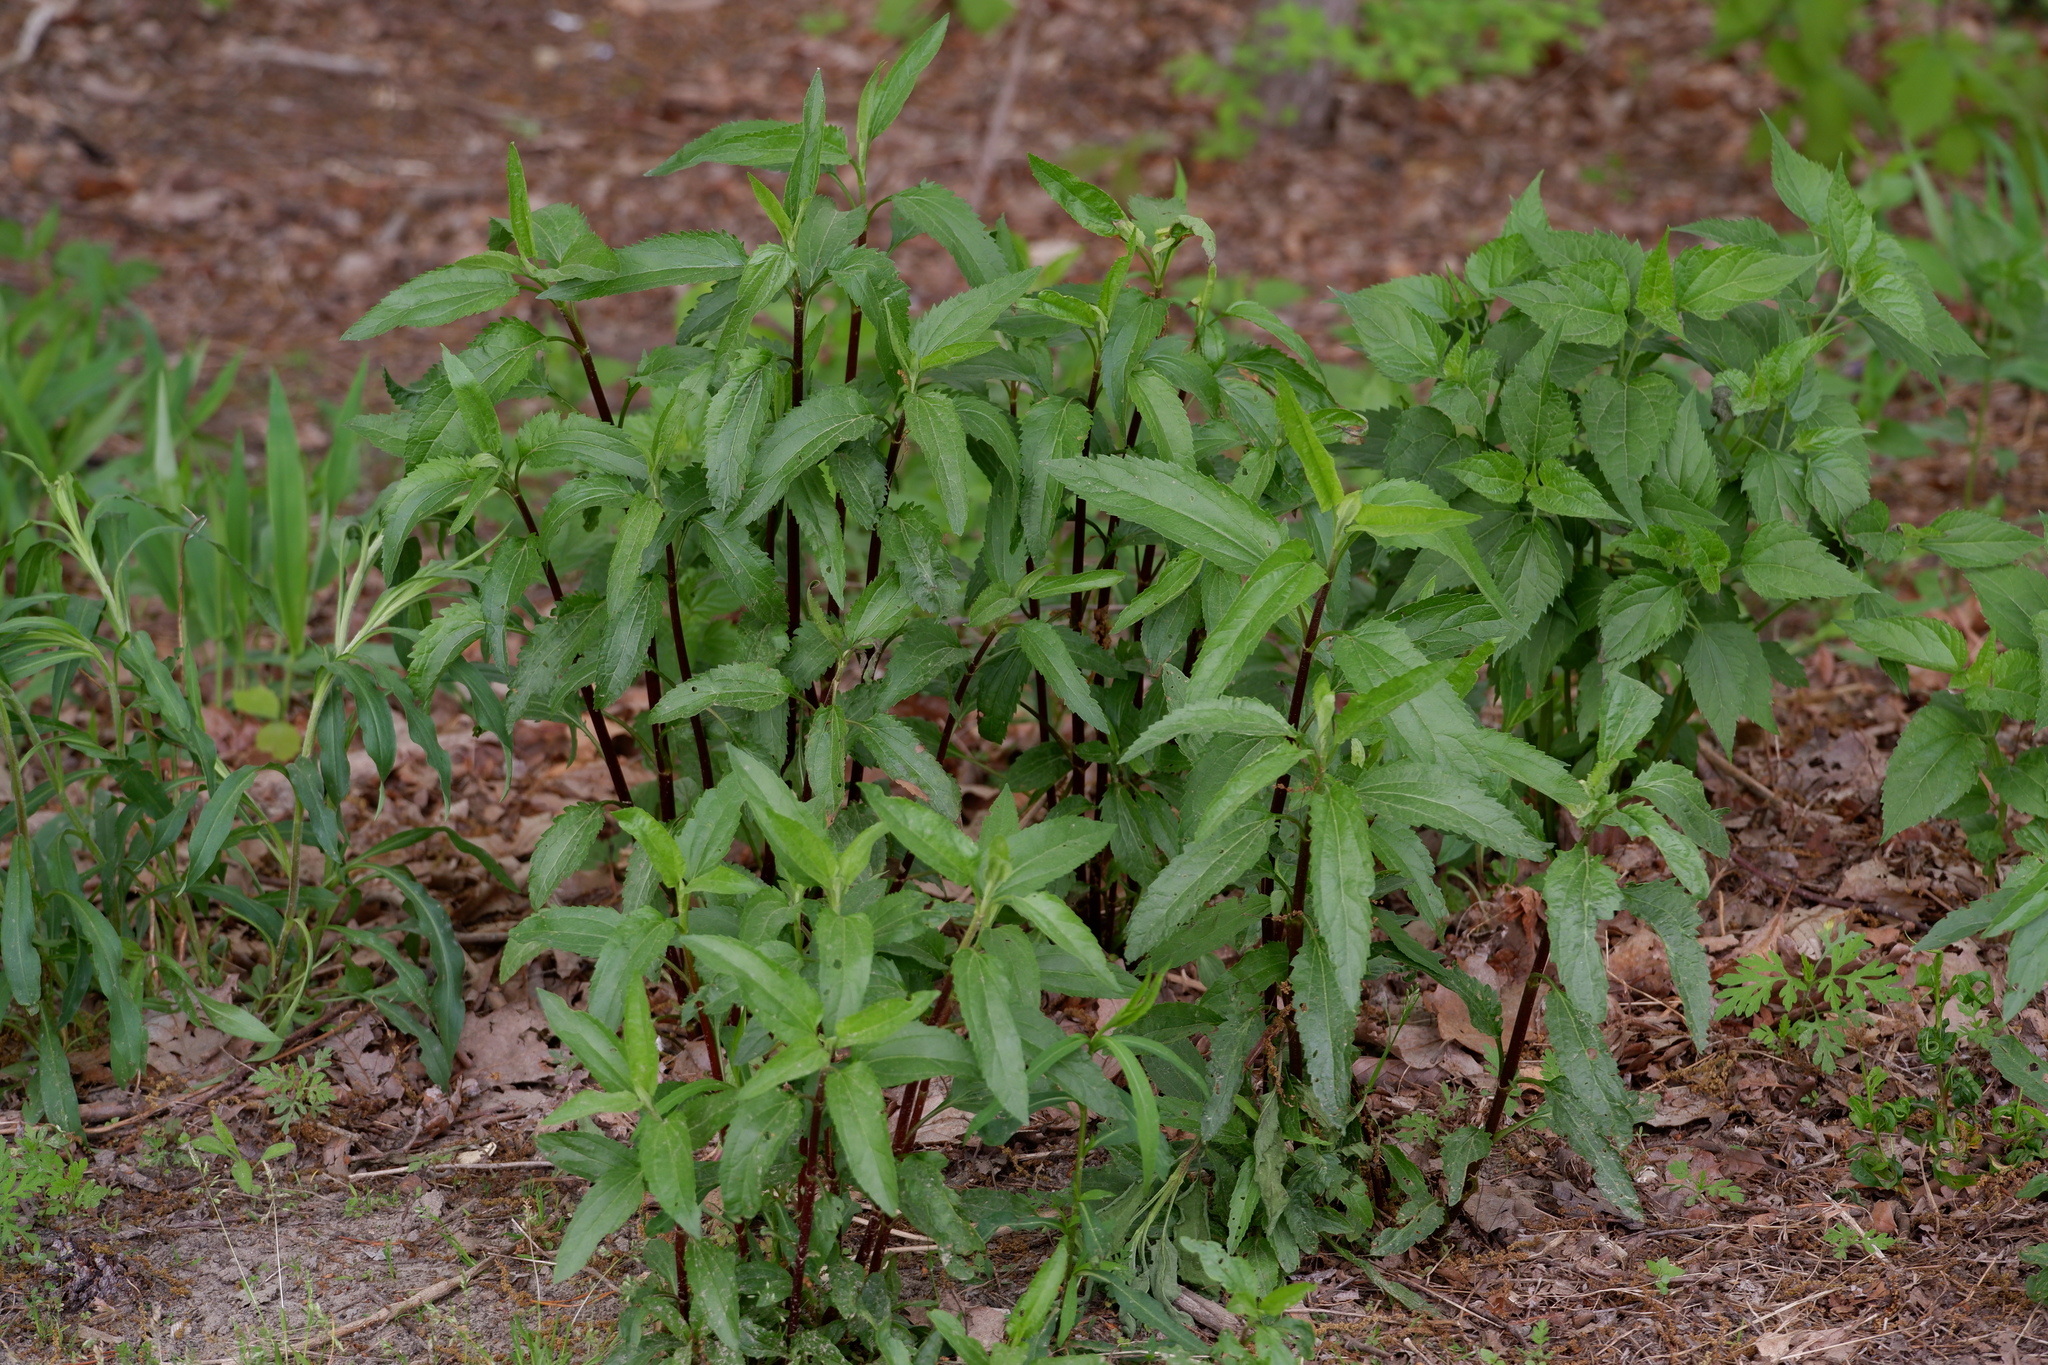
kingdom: Plantae
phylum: Tracheophyta
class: Magnoliopsida
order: Asterales
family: Asteraceae
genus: Eupatorium
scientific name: Eupatorium serotinum
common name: Late boneset
